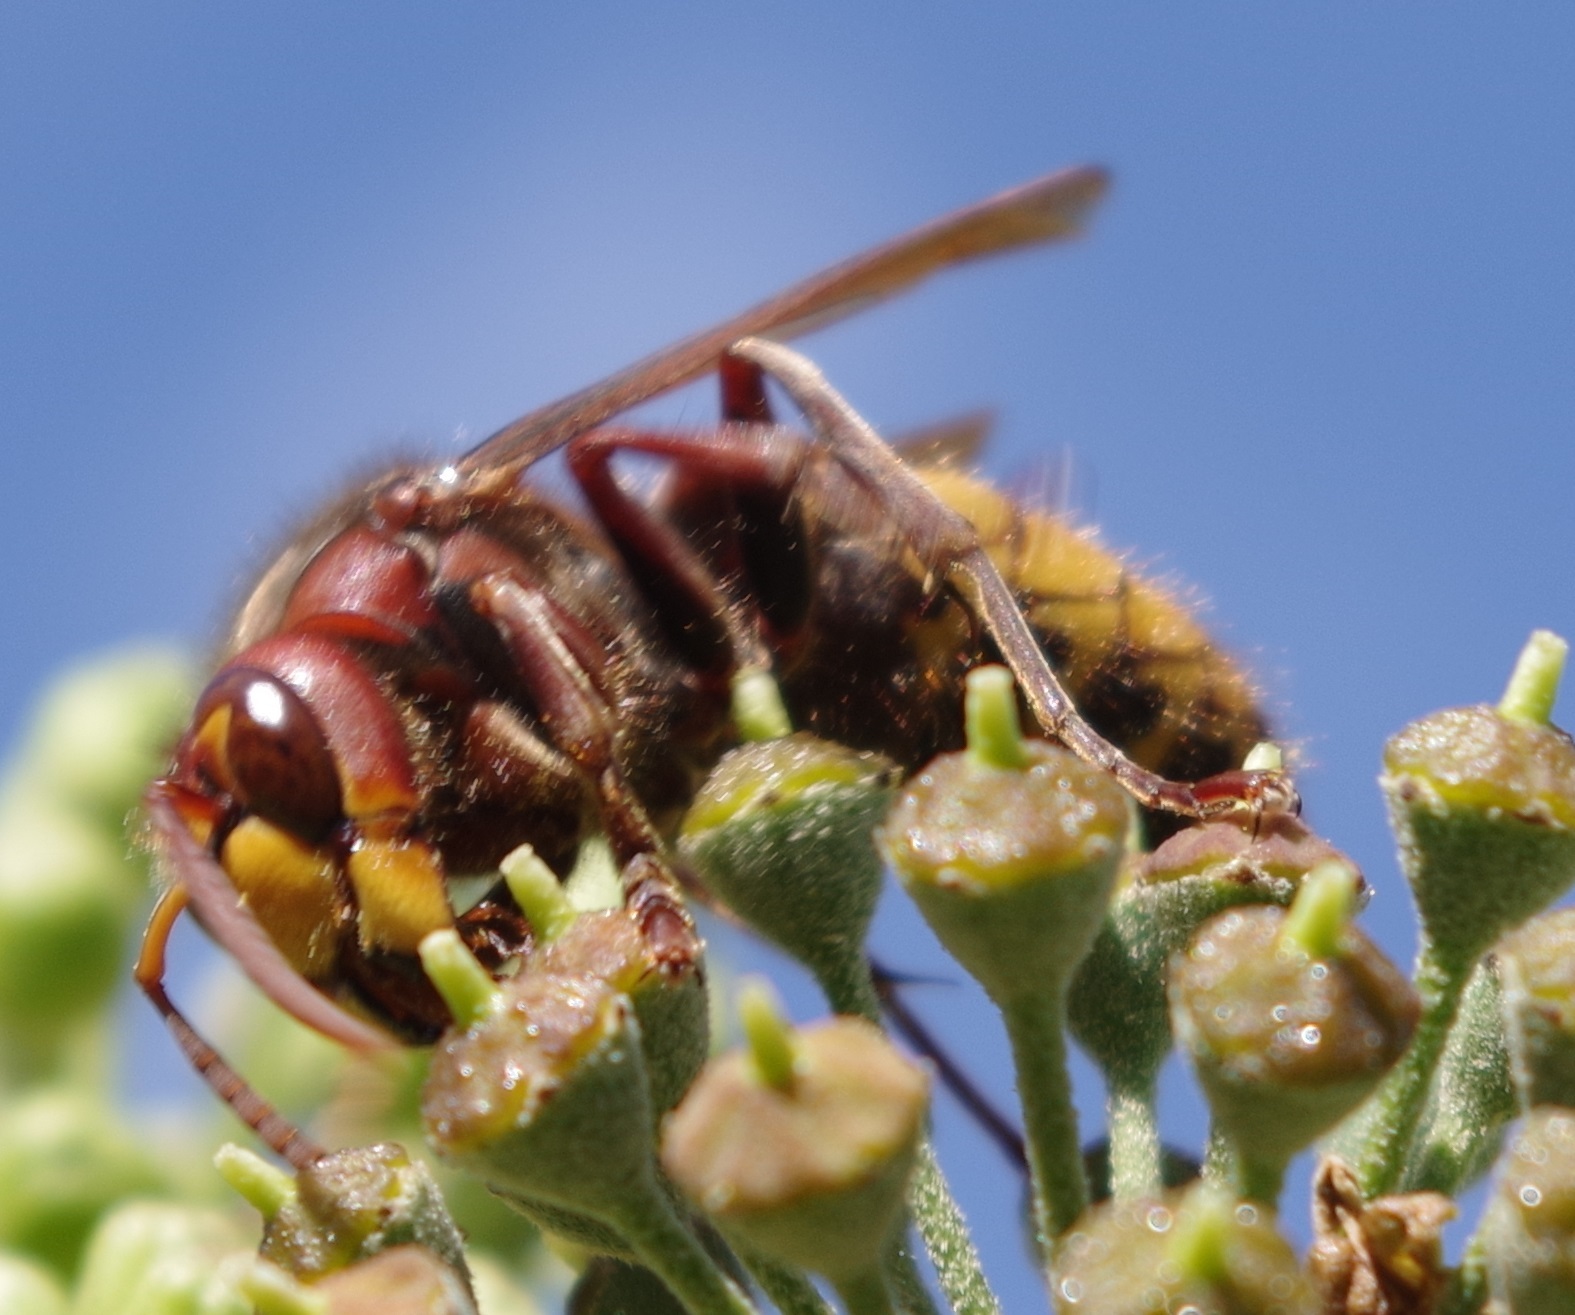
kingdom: Animalia
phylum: Arthropoda
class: Insecta
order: Hymenoptera
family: Vespidae
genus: Vespa
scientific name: Vespa crabro
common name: Hornet
